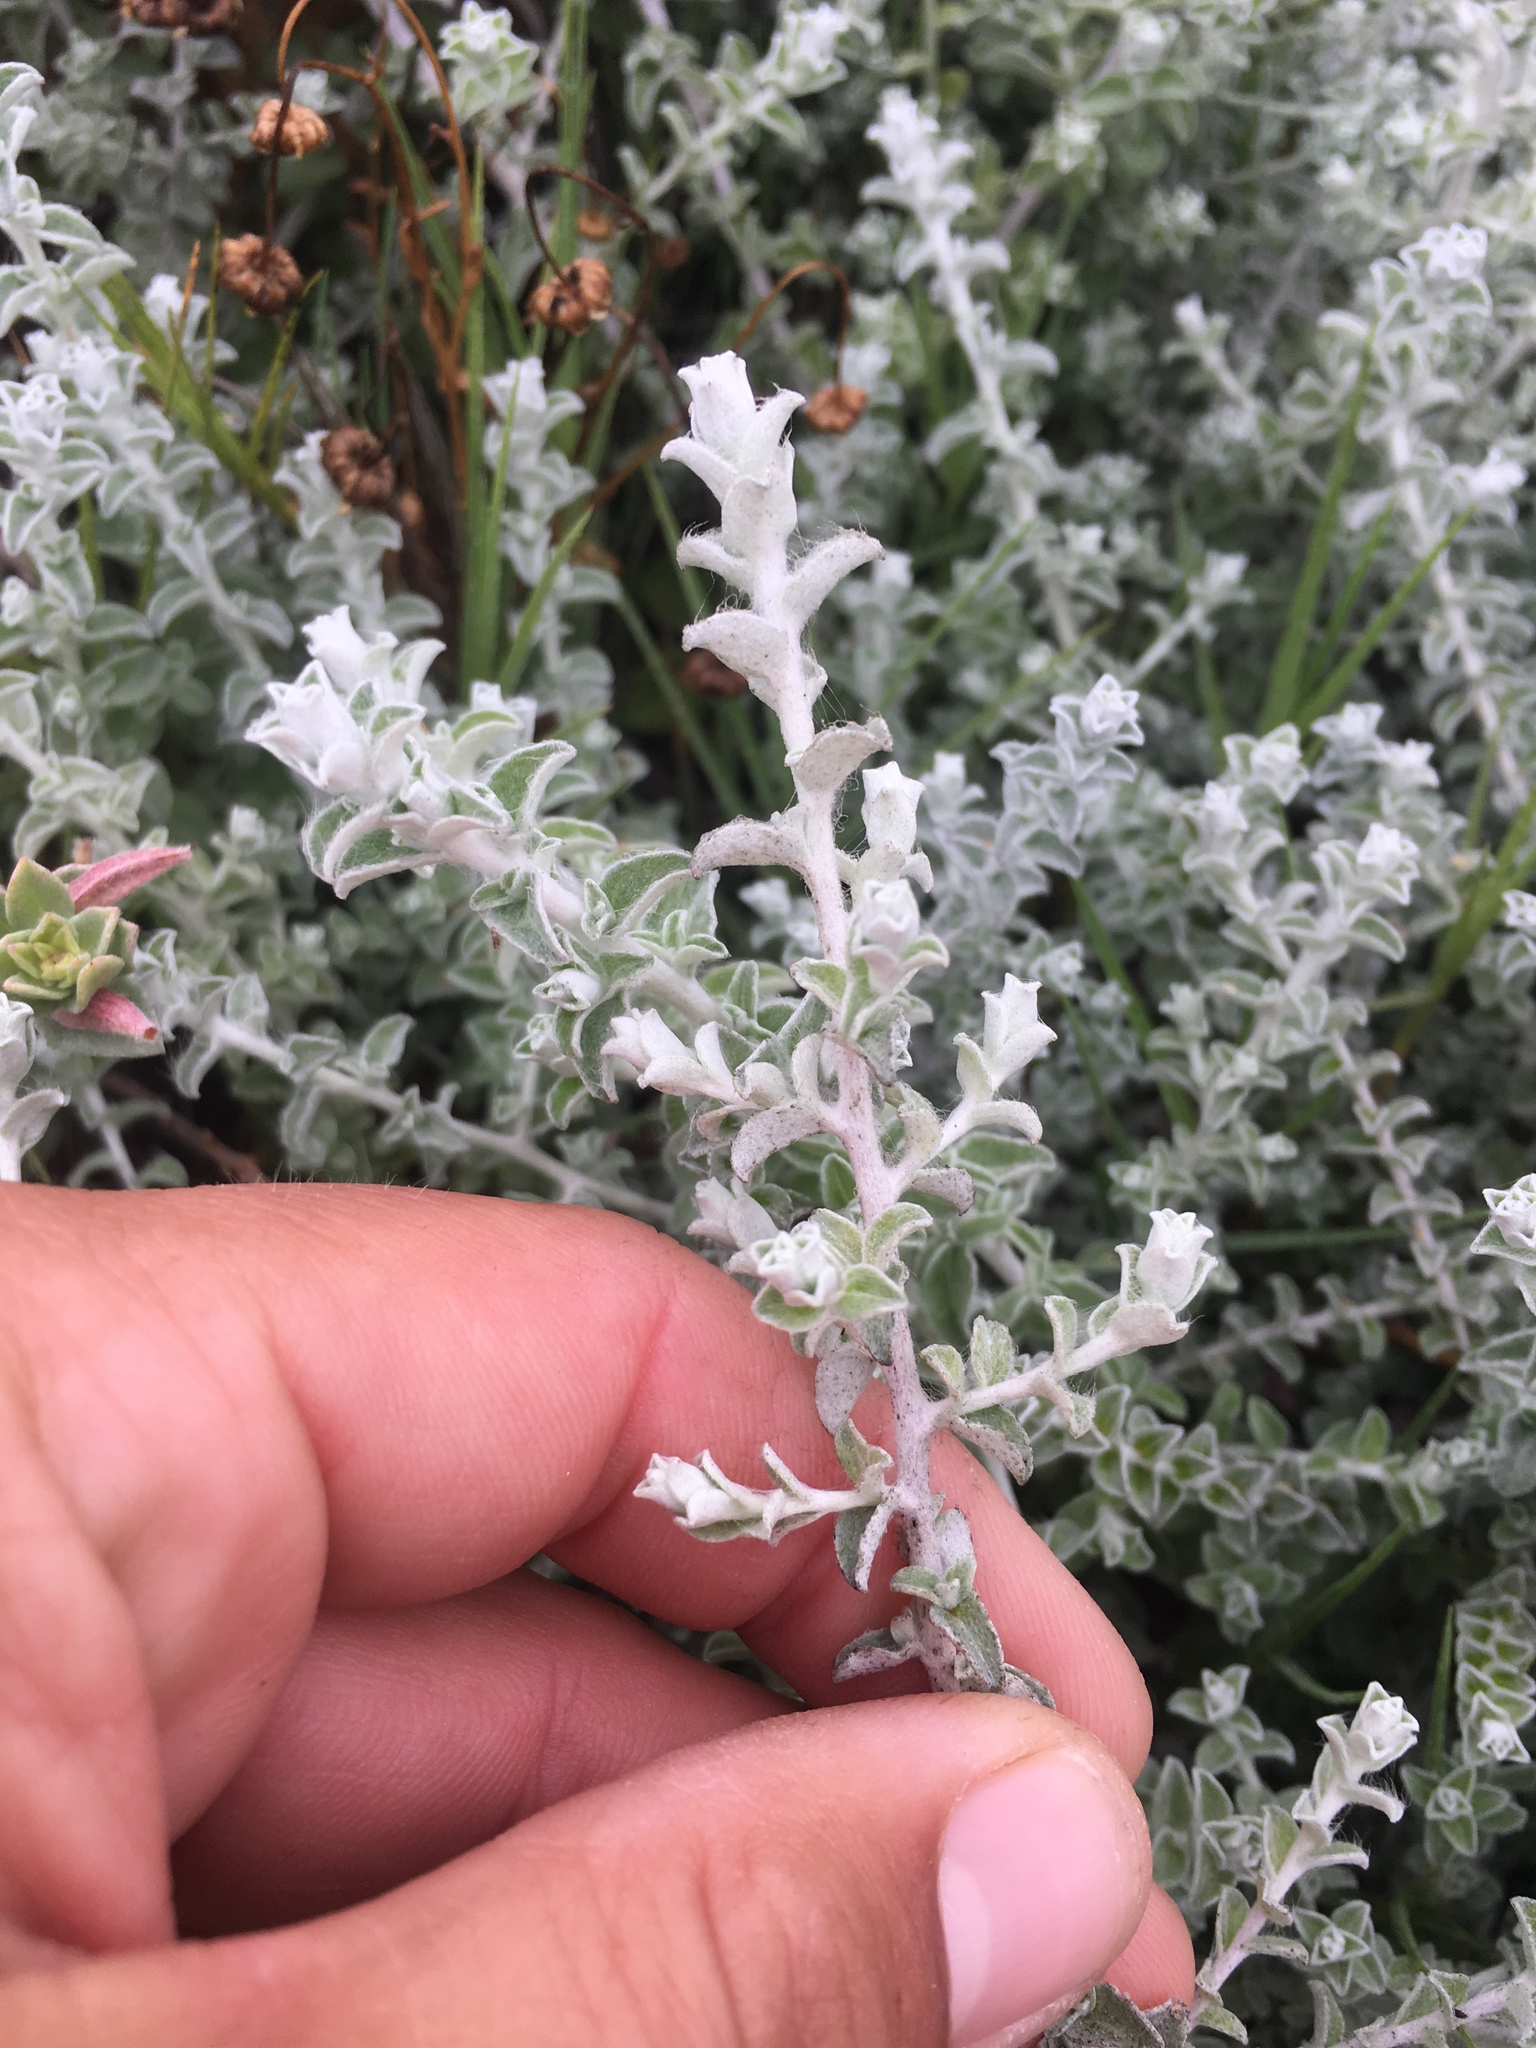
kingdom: Plantae
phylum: Tracheophyta
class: Magnoliopsida
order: Asterales
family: Asteraceae
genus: Plecostachys
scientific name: Plecostachys serpyllifolia
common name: Petite licorice
